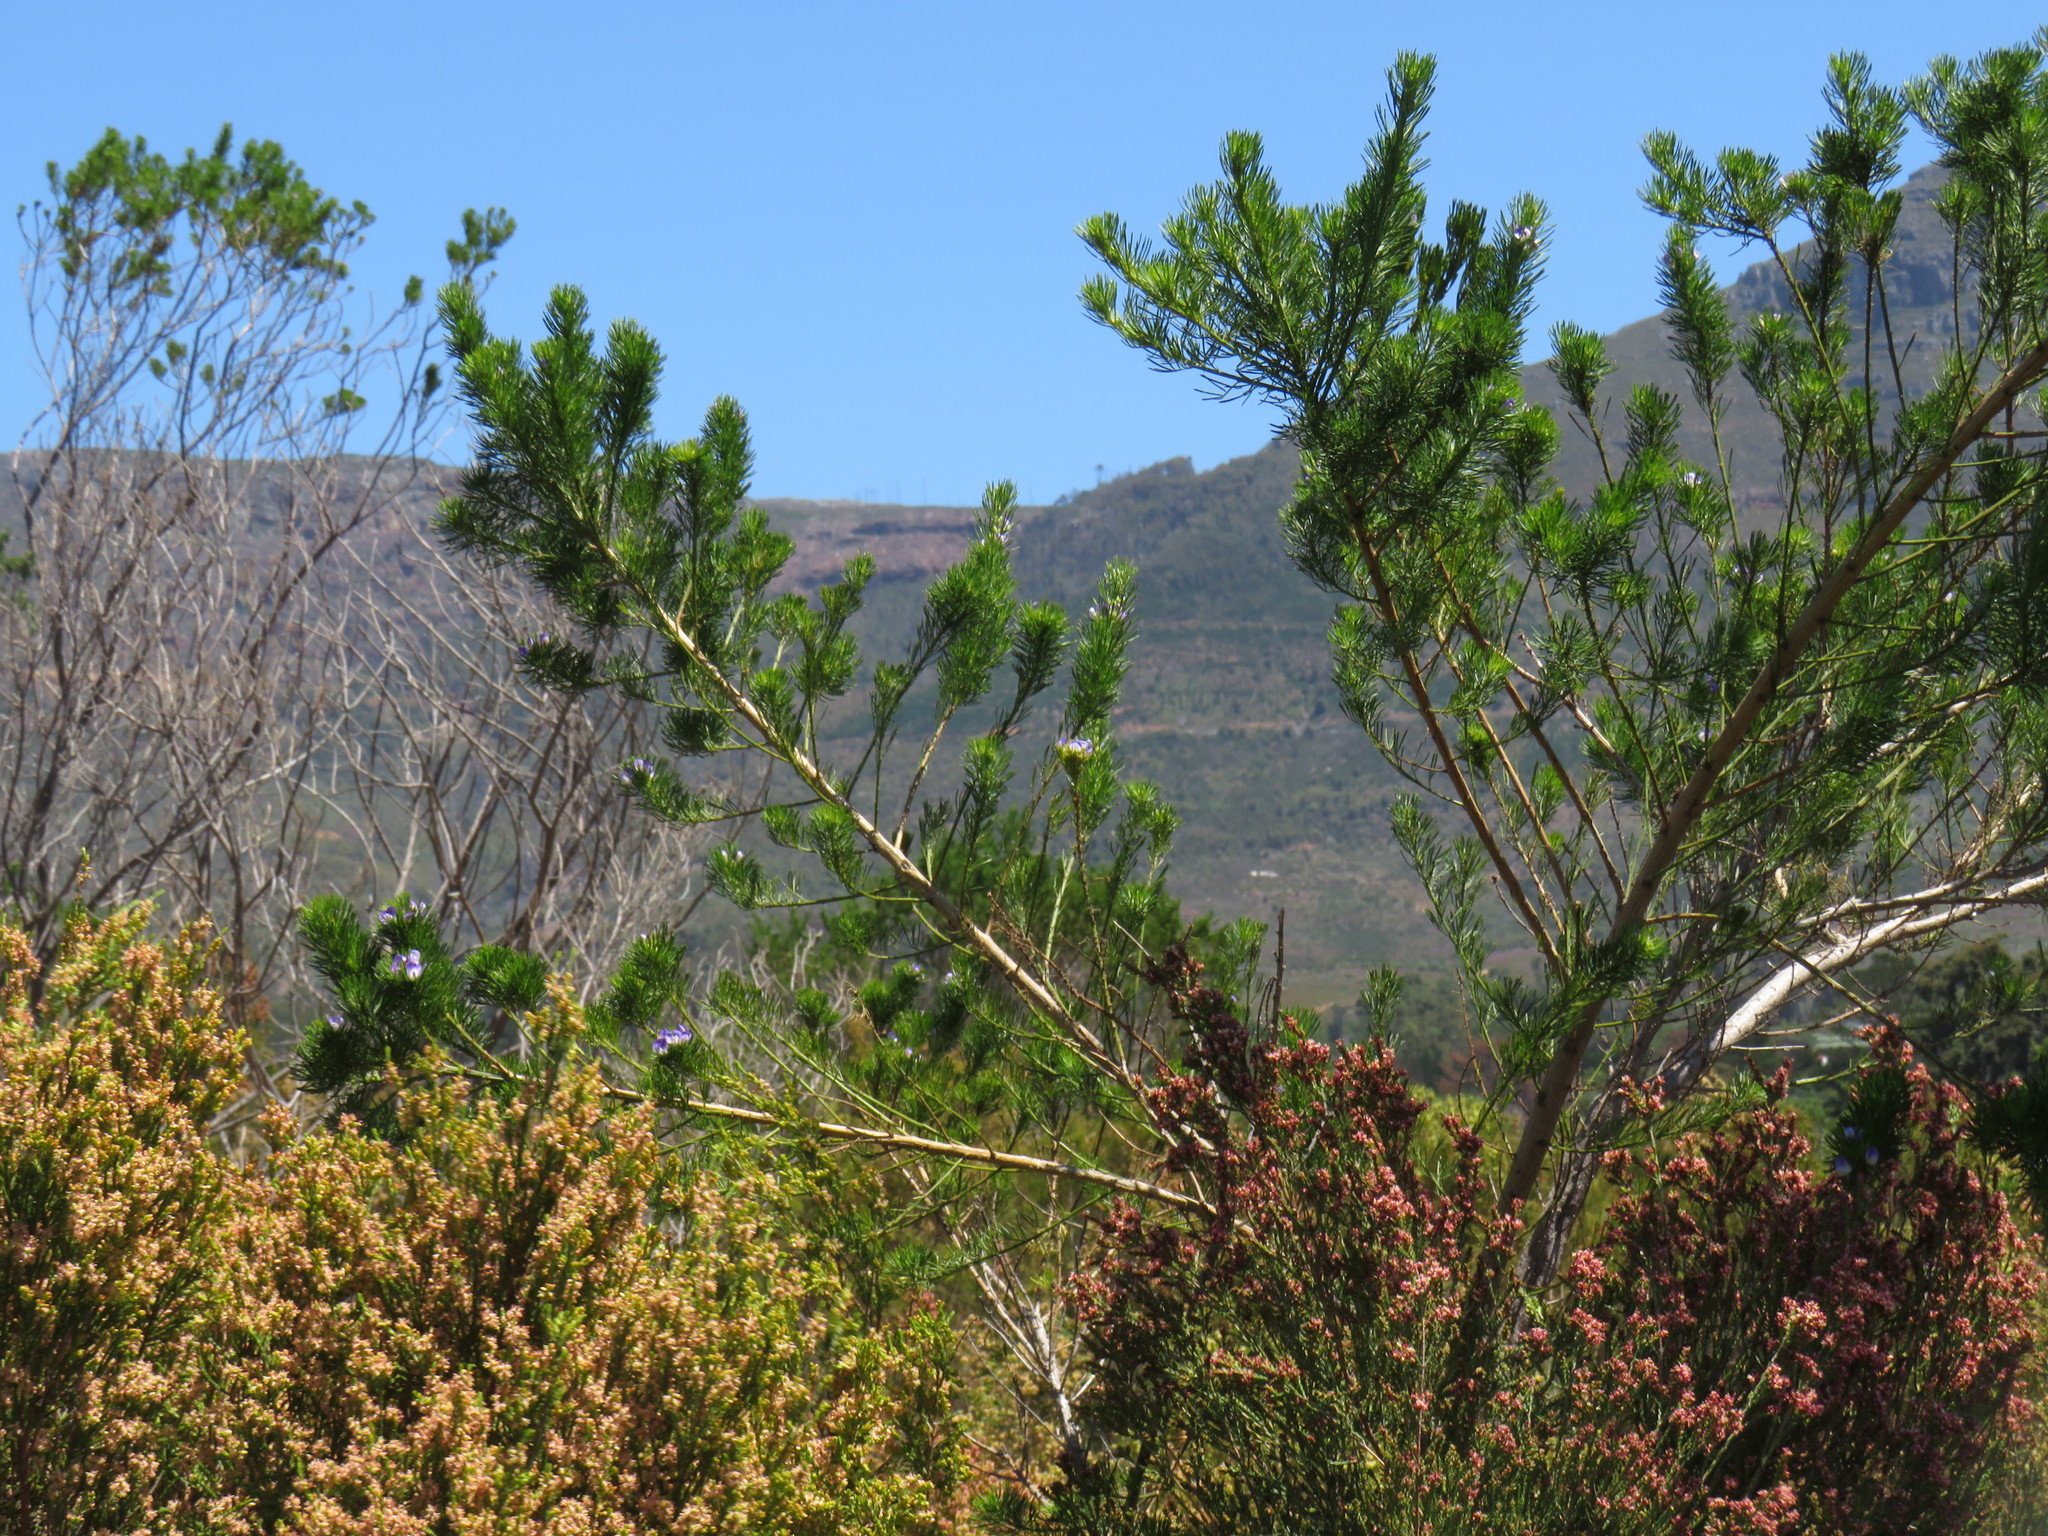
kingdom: Plantae
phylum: Tracheophyta
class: Magnoliopsida
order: Fabales
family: Fabaceae
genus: Psoralea
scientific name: Psoralea pinnata
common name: African scurfpea
